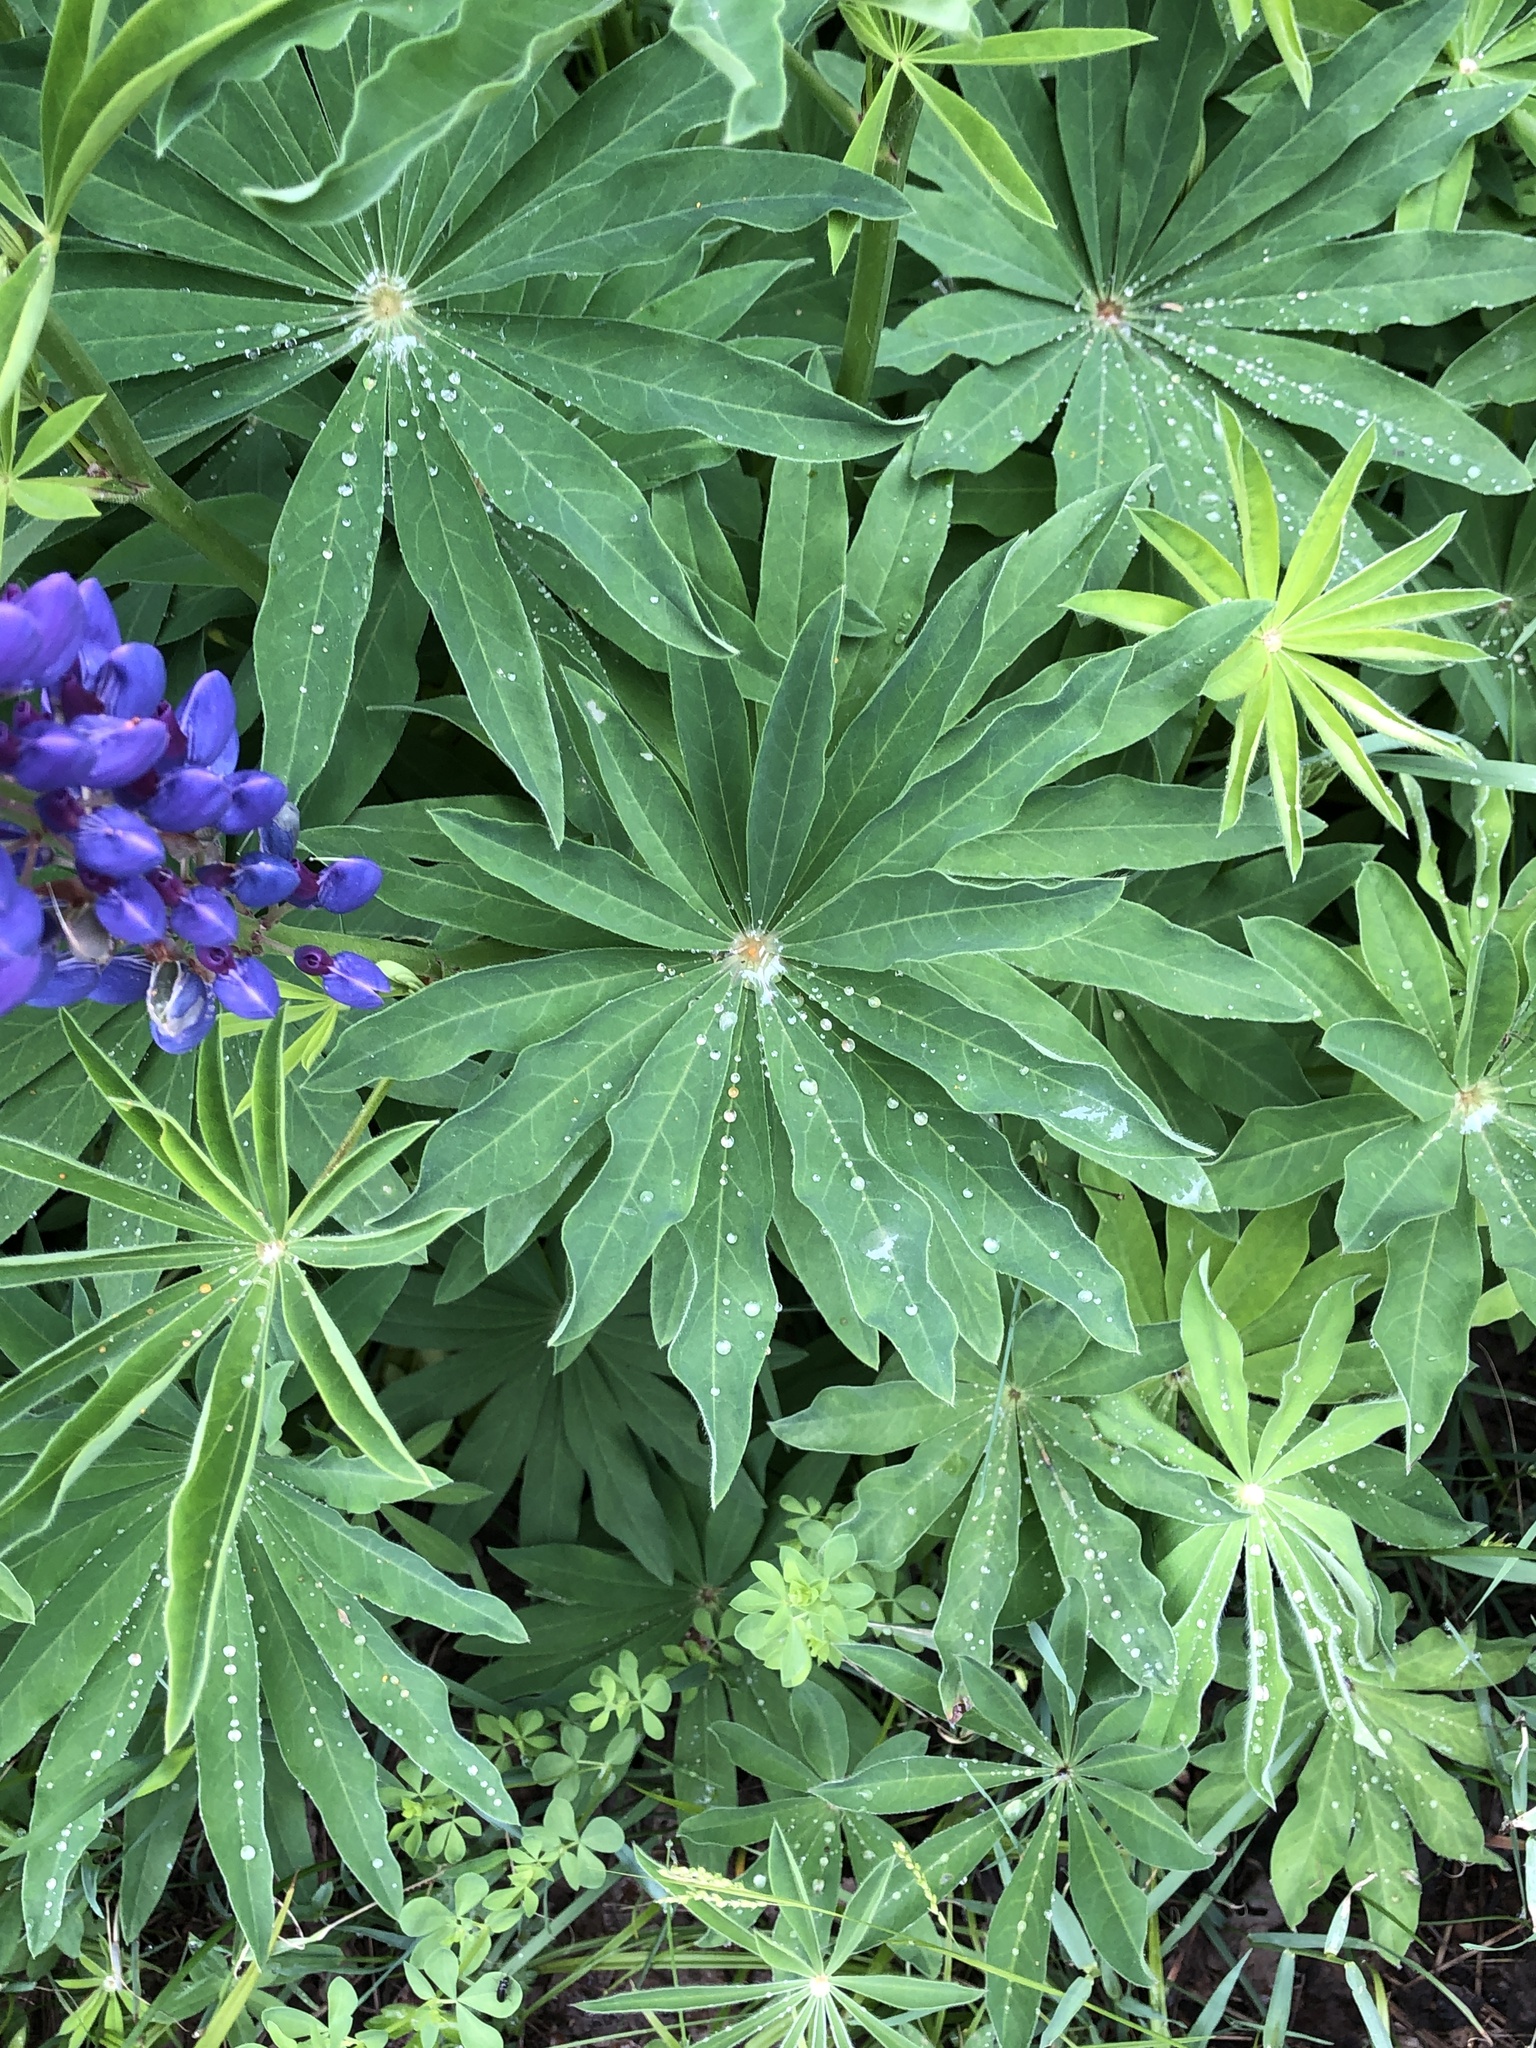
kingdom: Plantae
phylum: Tracheophyta
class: Magnoliopsida
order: Fabales
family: Fabaceae
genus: Lupinus
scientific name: Lupinus polyphyllus
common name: Garden lupin
